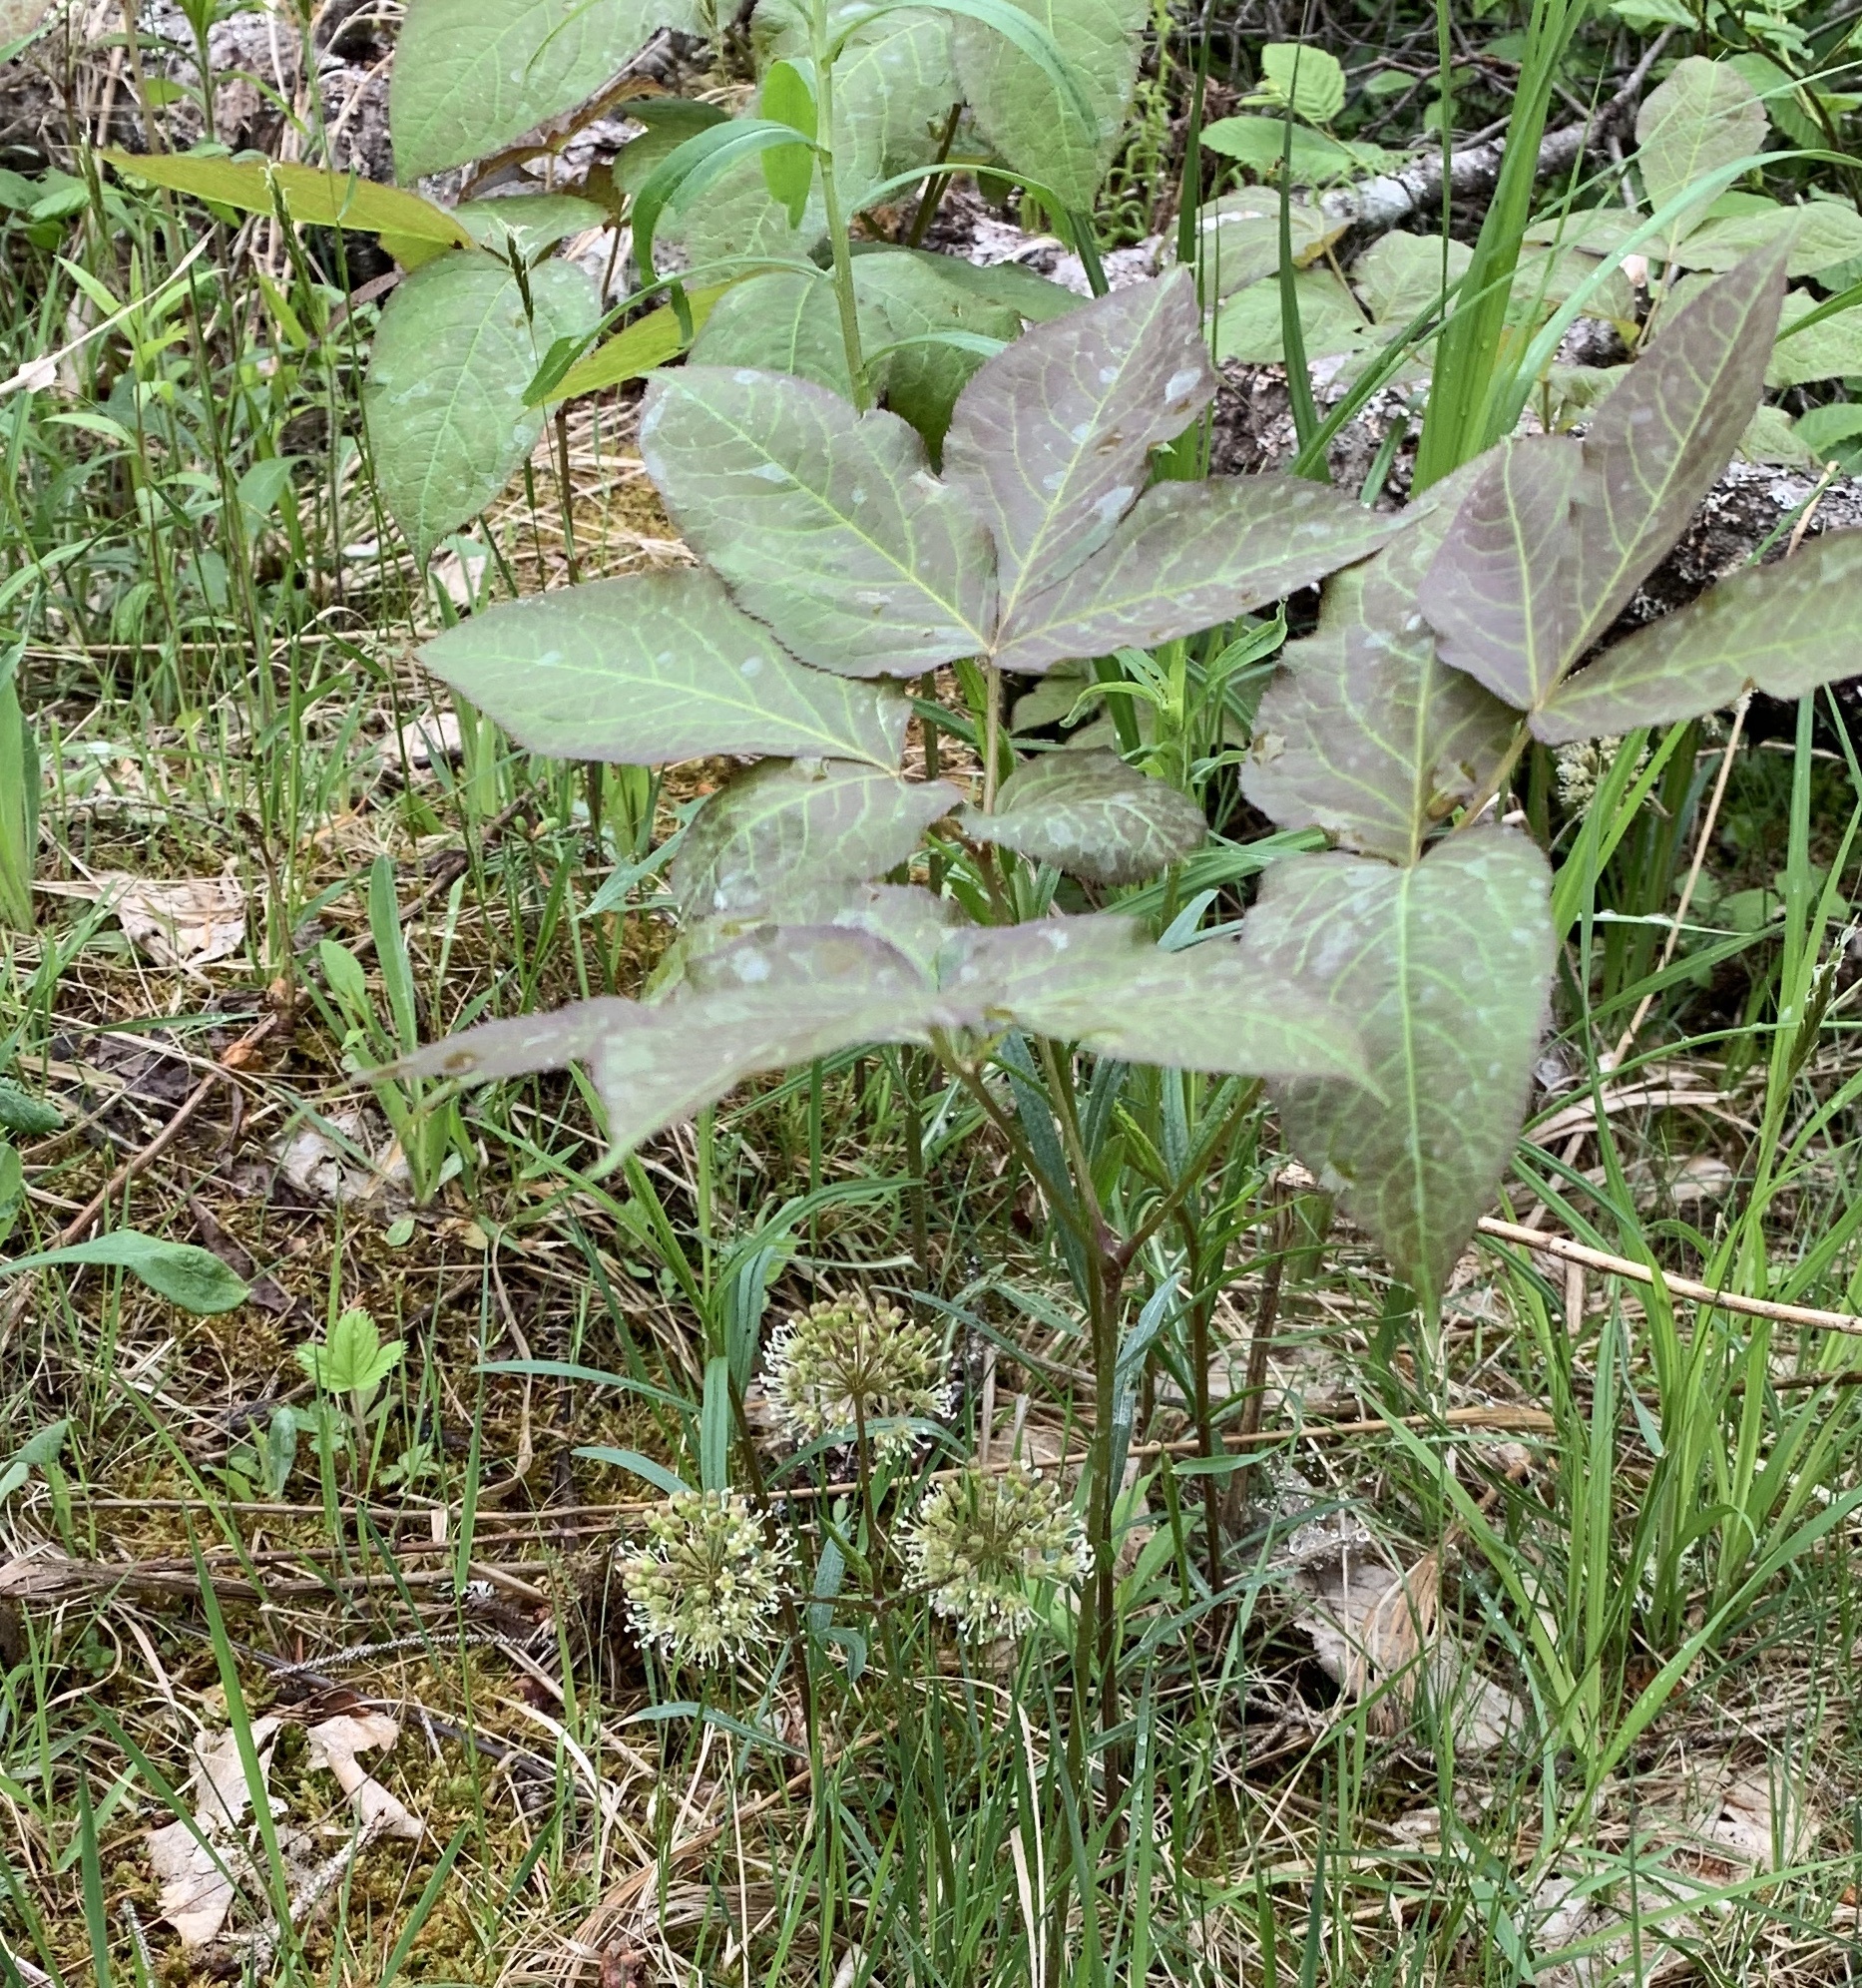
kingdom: Plantae
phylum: Tracheophyta
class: Magnoliopsida
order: Apiales
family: Araliaceae
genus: Aralia
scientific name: Aralia nudicaulis
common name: Wild sarsaparilla
